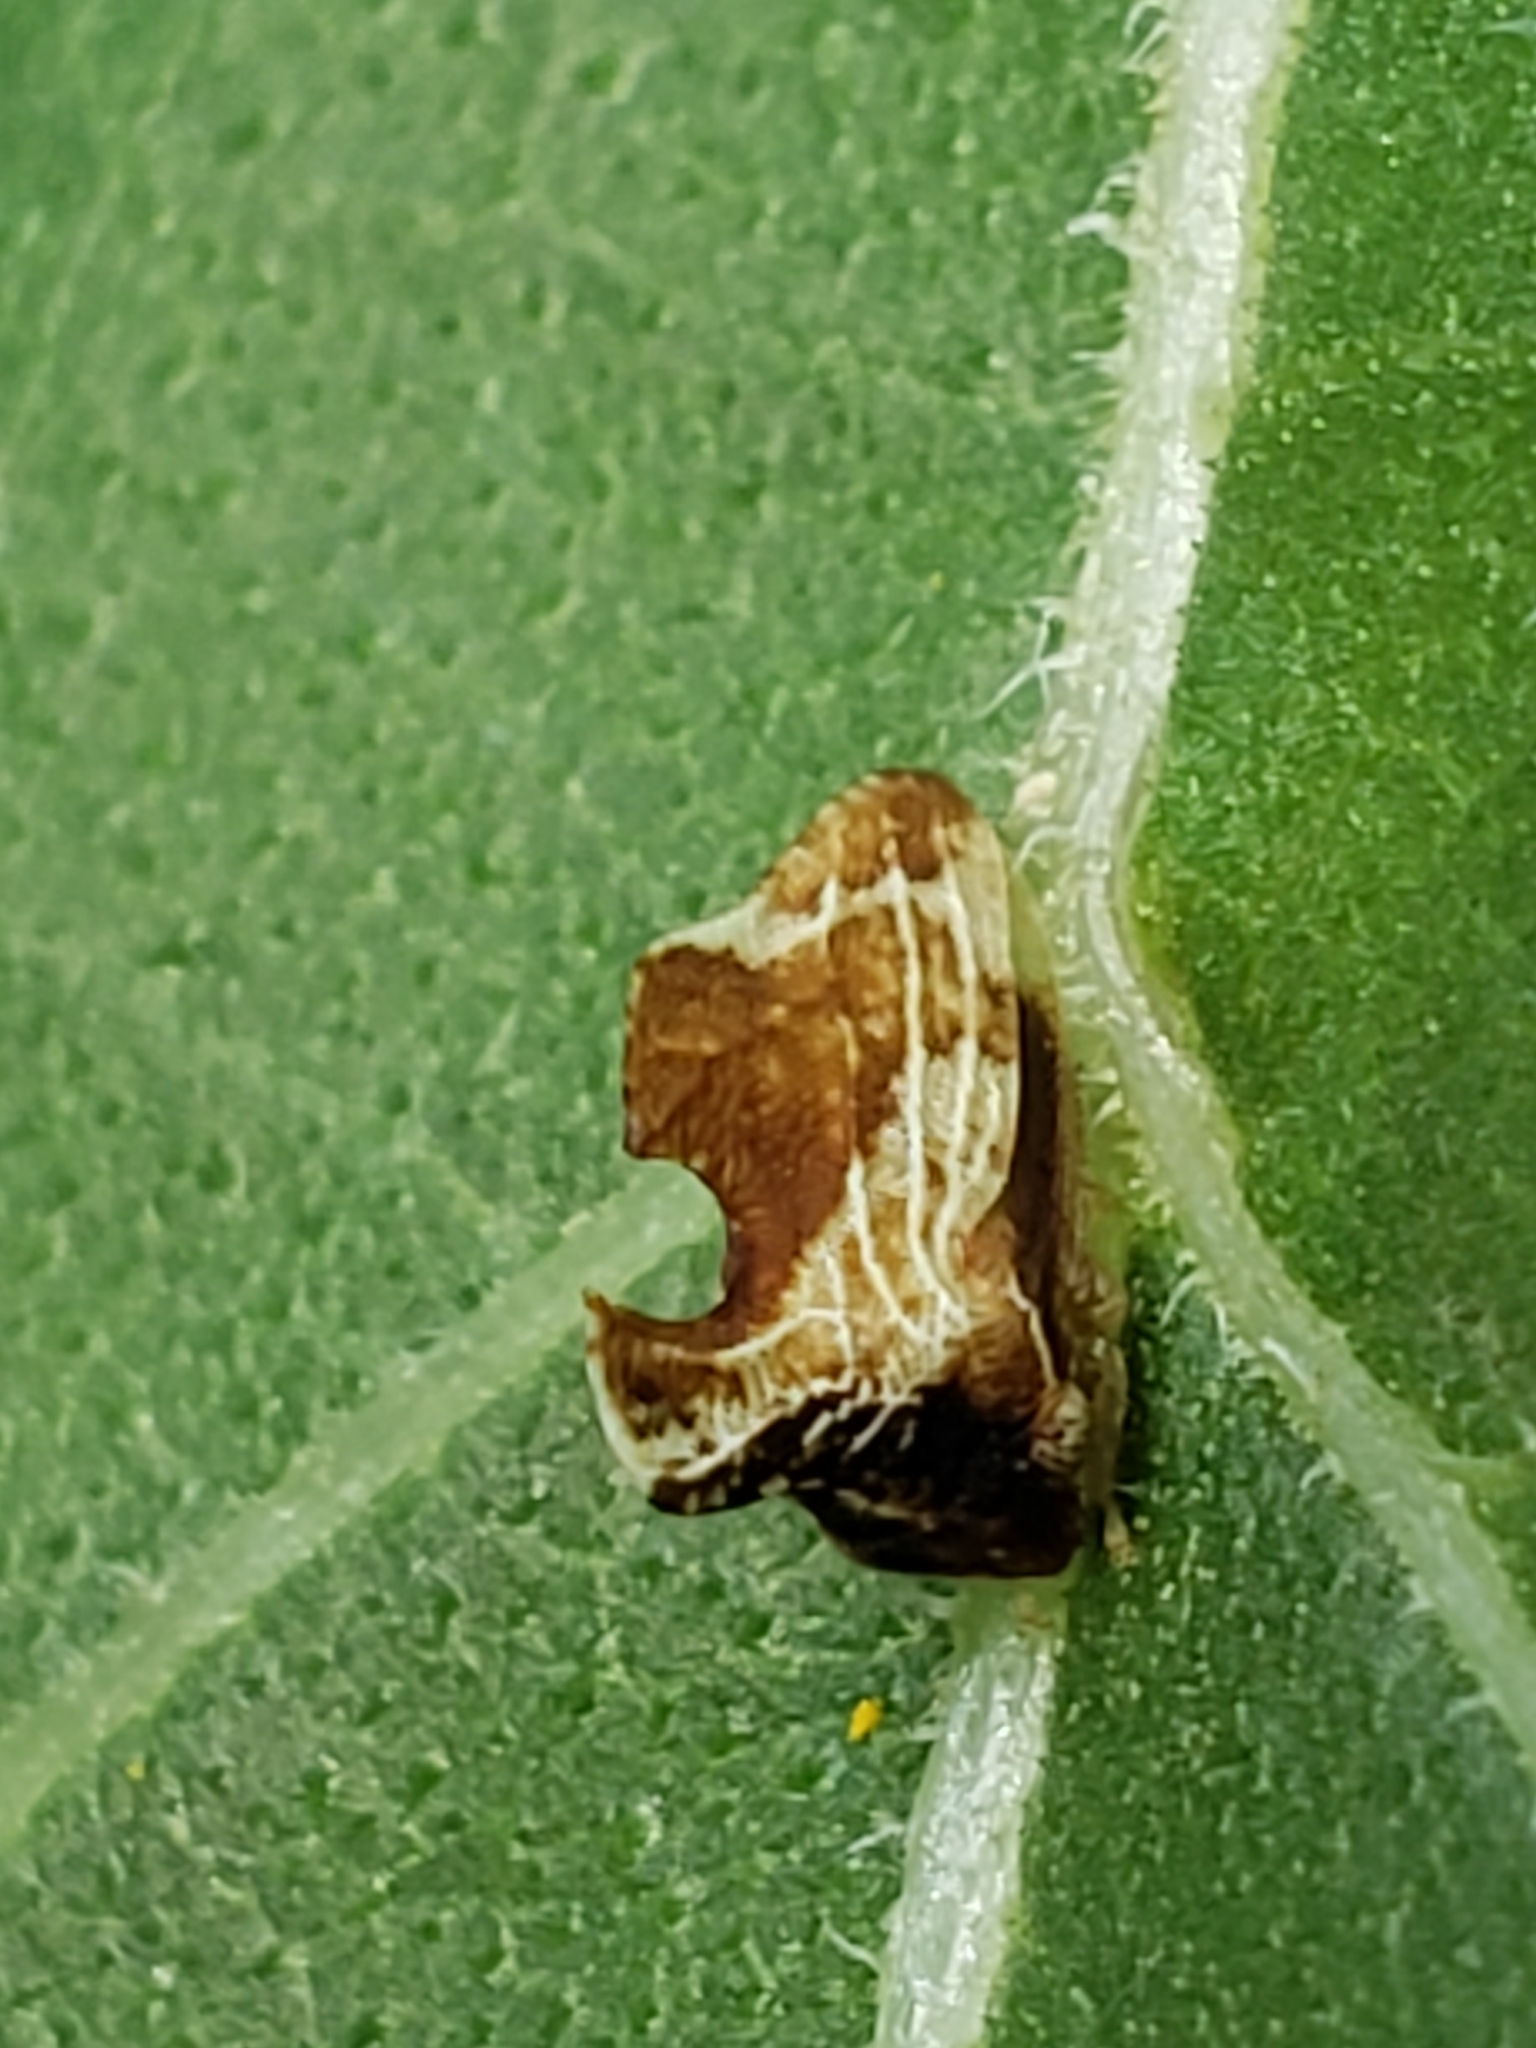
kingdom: Animalia
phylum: Arthropoda
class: Insecta
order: Hemiptera
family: Membracidae
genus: Entylia
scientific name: Entylia carinata
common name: Keeled treehopper
